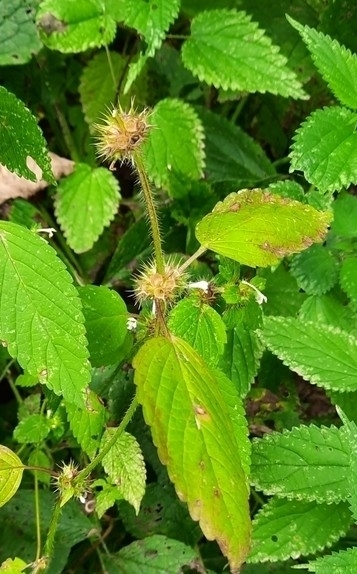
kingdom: Plantae
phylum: Tracheophyta
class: Magnoliopsida
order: Lamiales
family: Lamiaceae
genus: Galeopsis
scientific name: Galeopsis bifida
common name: Bifid hemp-nettle
